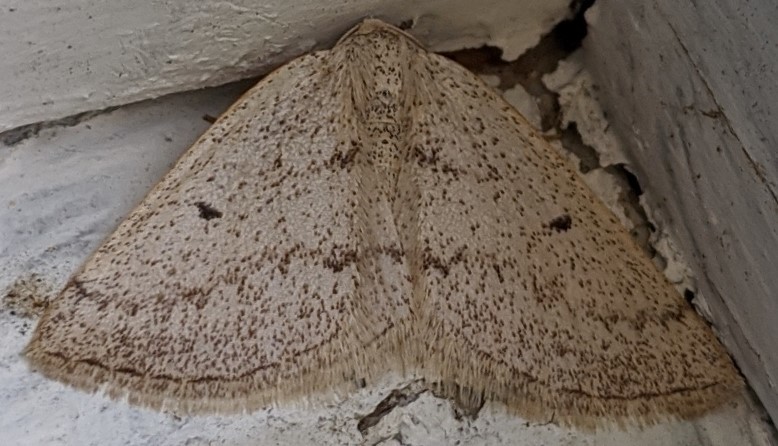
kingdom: Animalia
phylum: Arthropoda
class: Insecta
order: Lepidoptera
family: Geometridae
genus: Lomographa
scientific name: Lomographa glomeraria
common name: Gray spring moth
